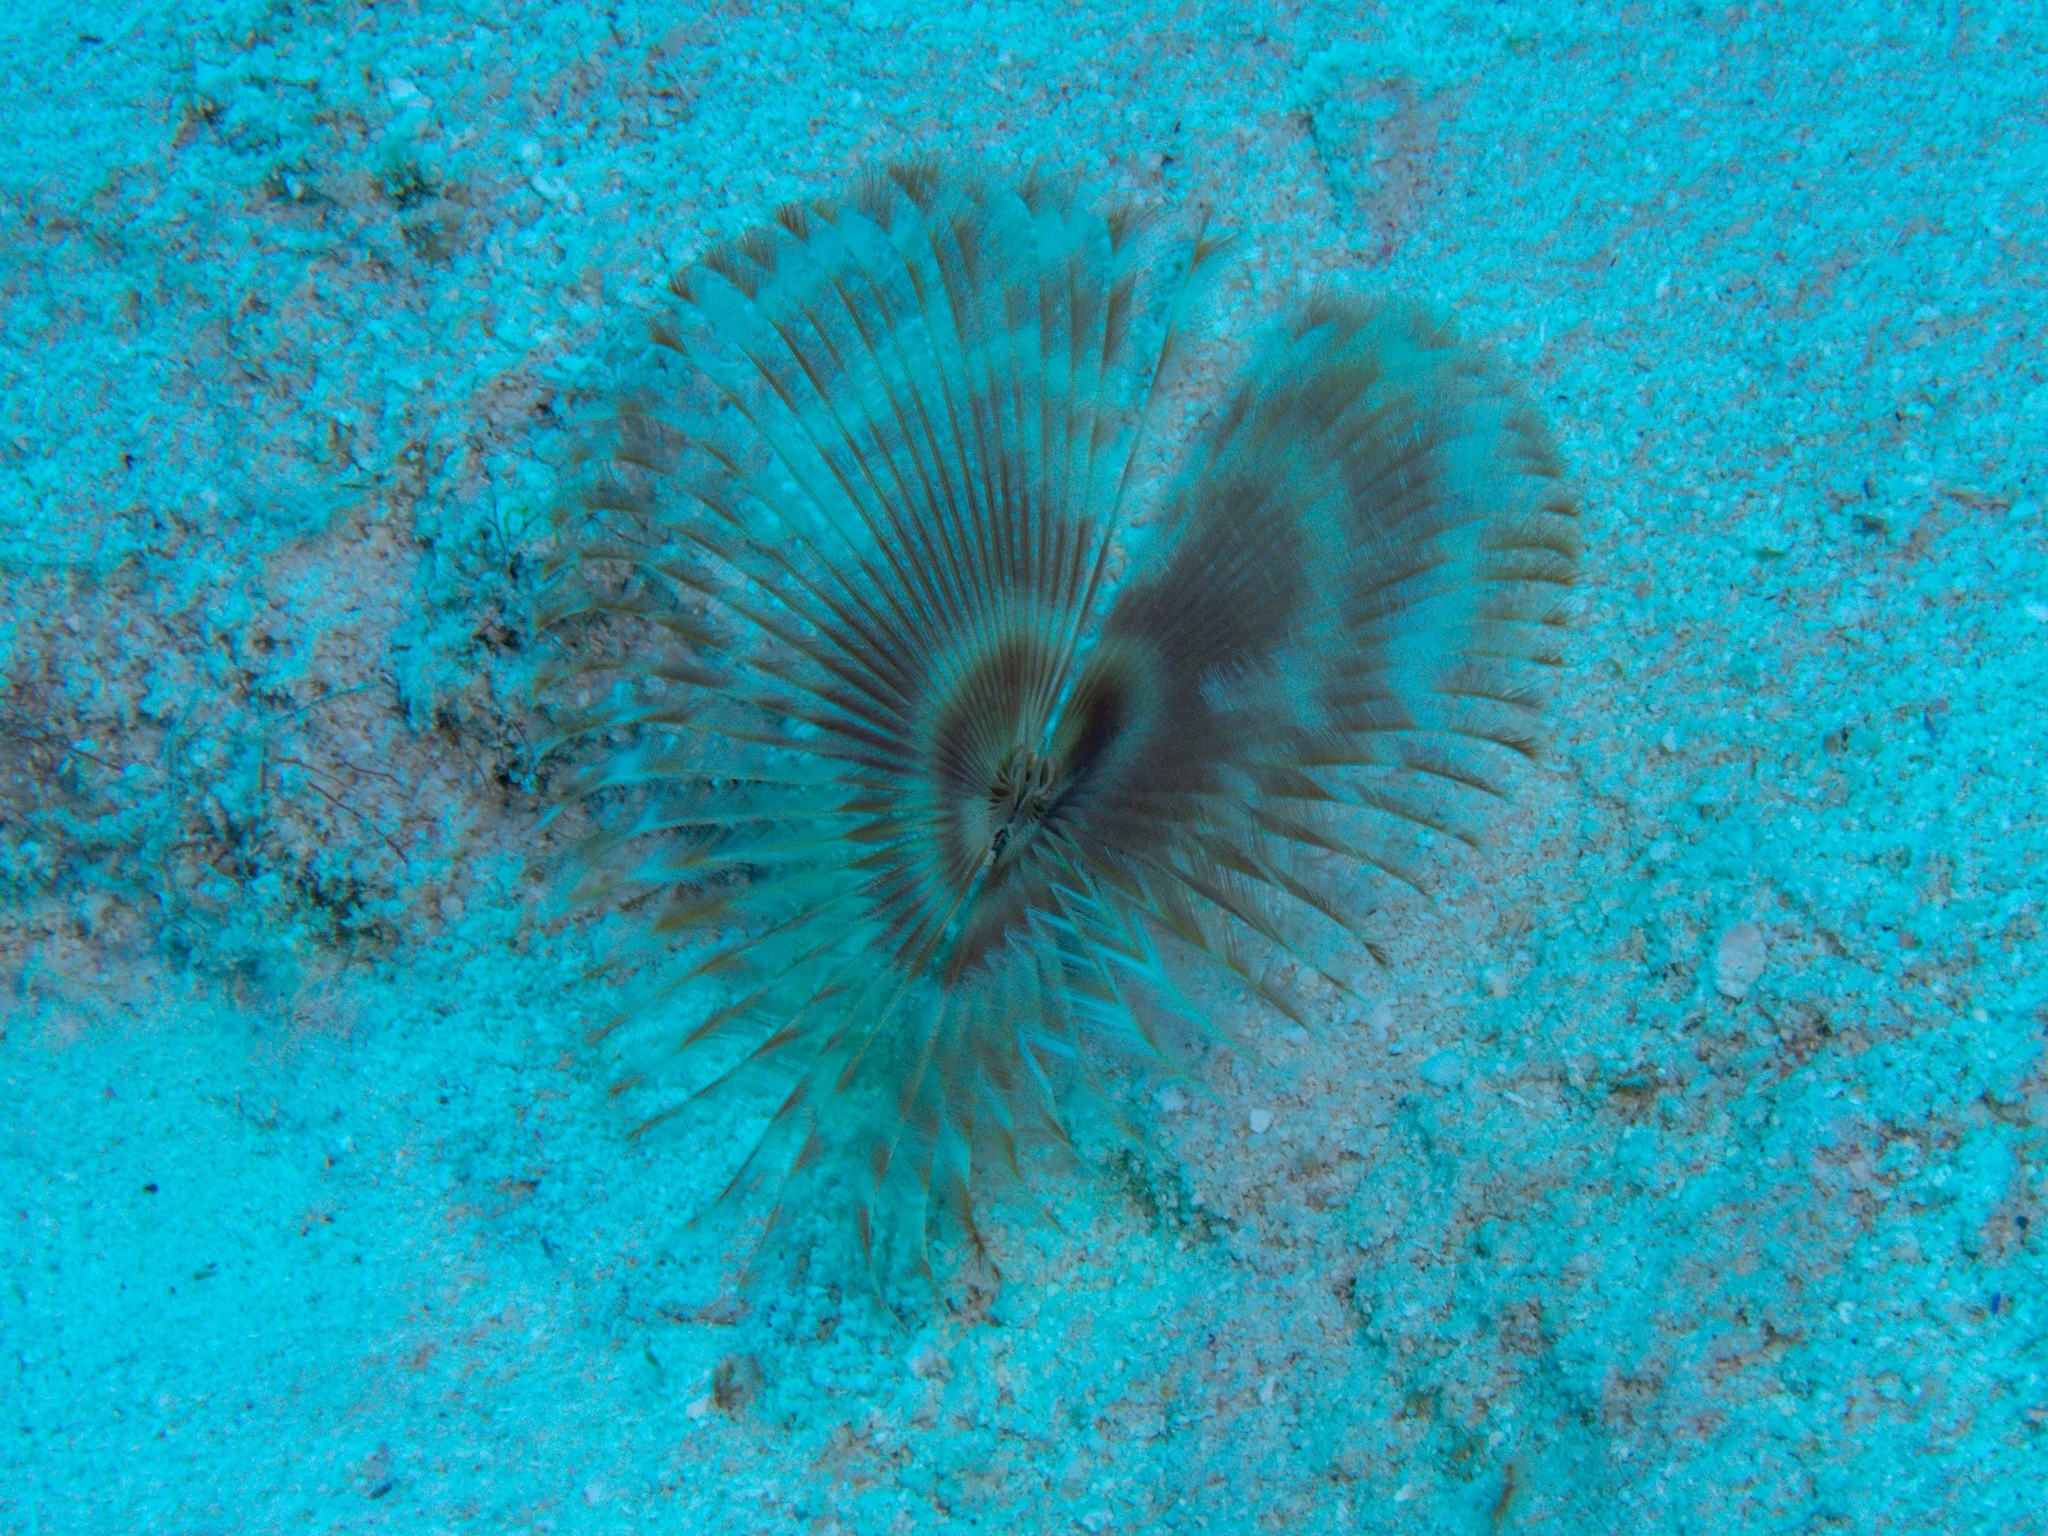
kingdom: Animalia
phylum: Annelida
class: Polychaeta
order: Sabellida
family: Sabellidae
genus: Anamobaea
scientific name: Anamobaea orstedii
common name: Split-crown feather duster
